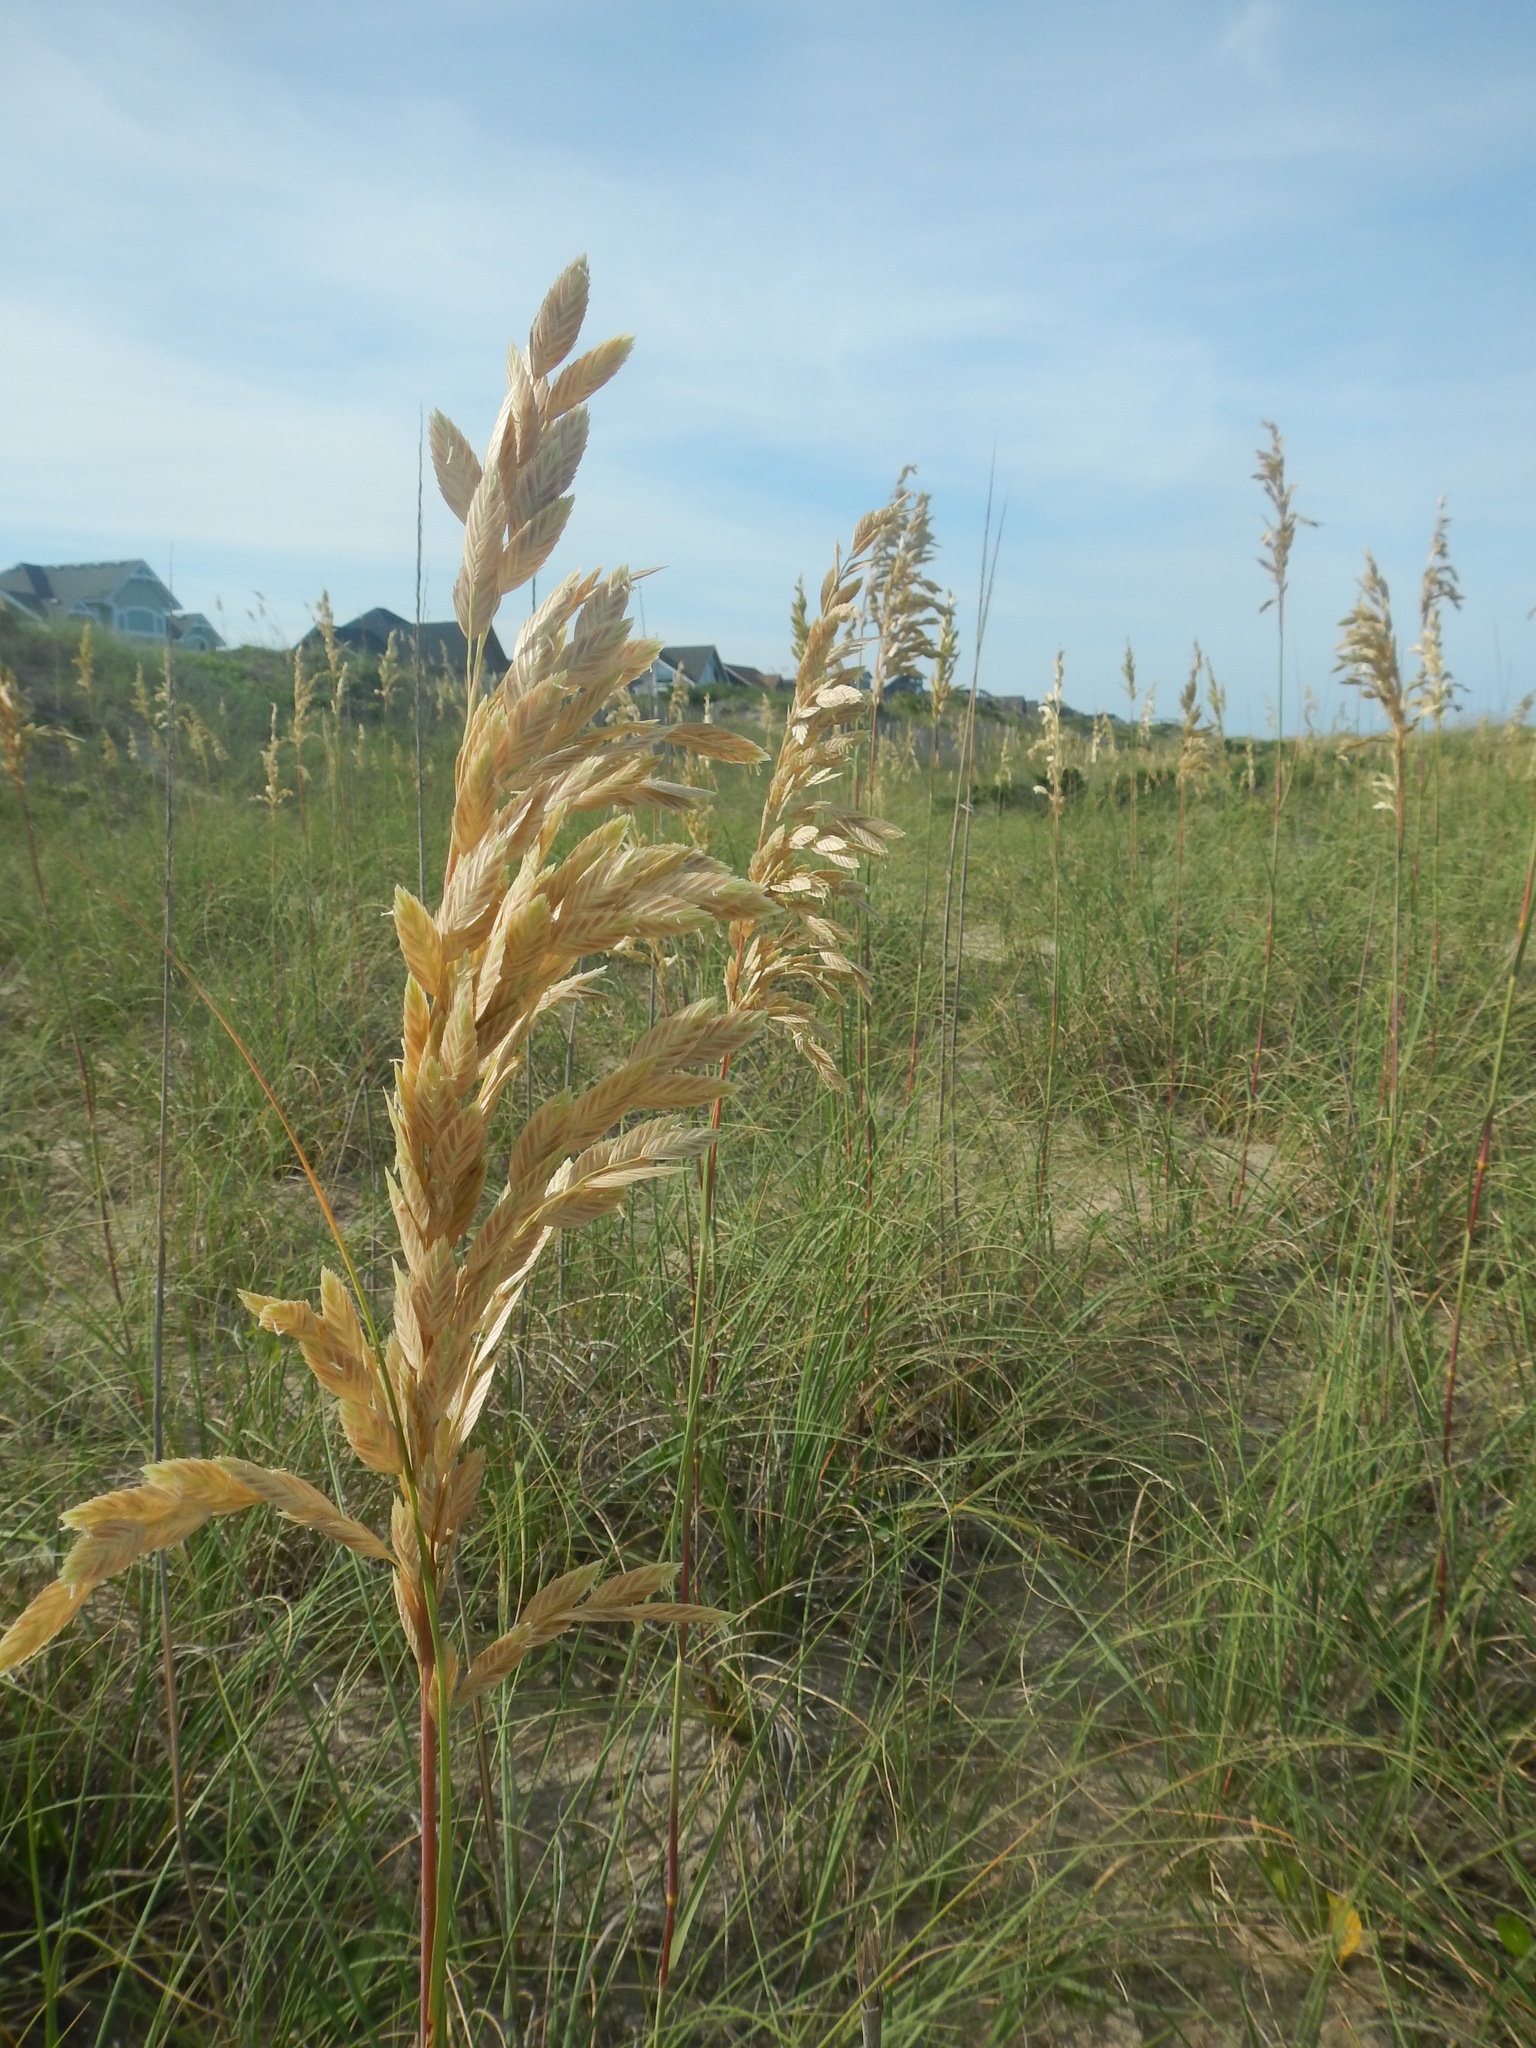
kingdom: Plantae
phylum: Tracheophyta
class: Liliopsida
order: Poales
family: Poaceae
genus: Uniola
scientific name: Uniola paniculata
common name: Seaside-oats
